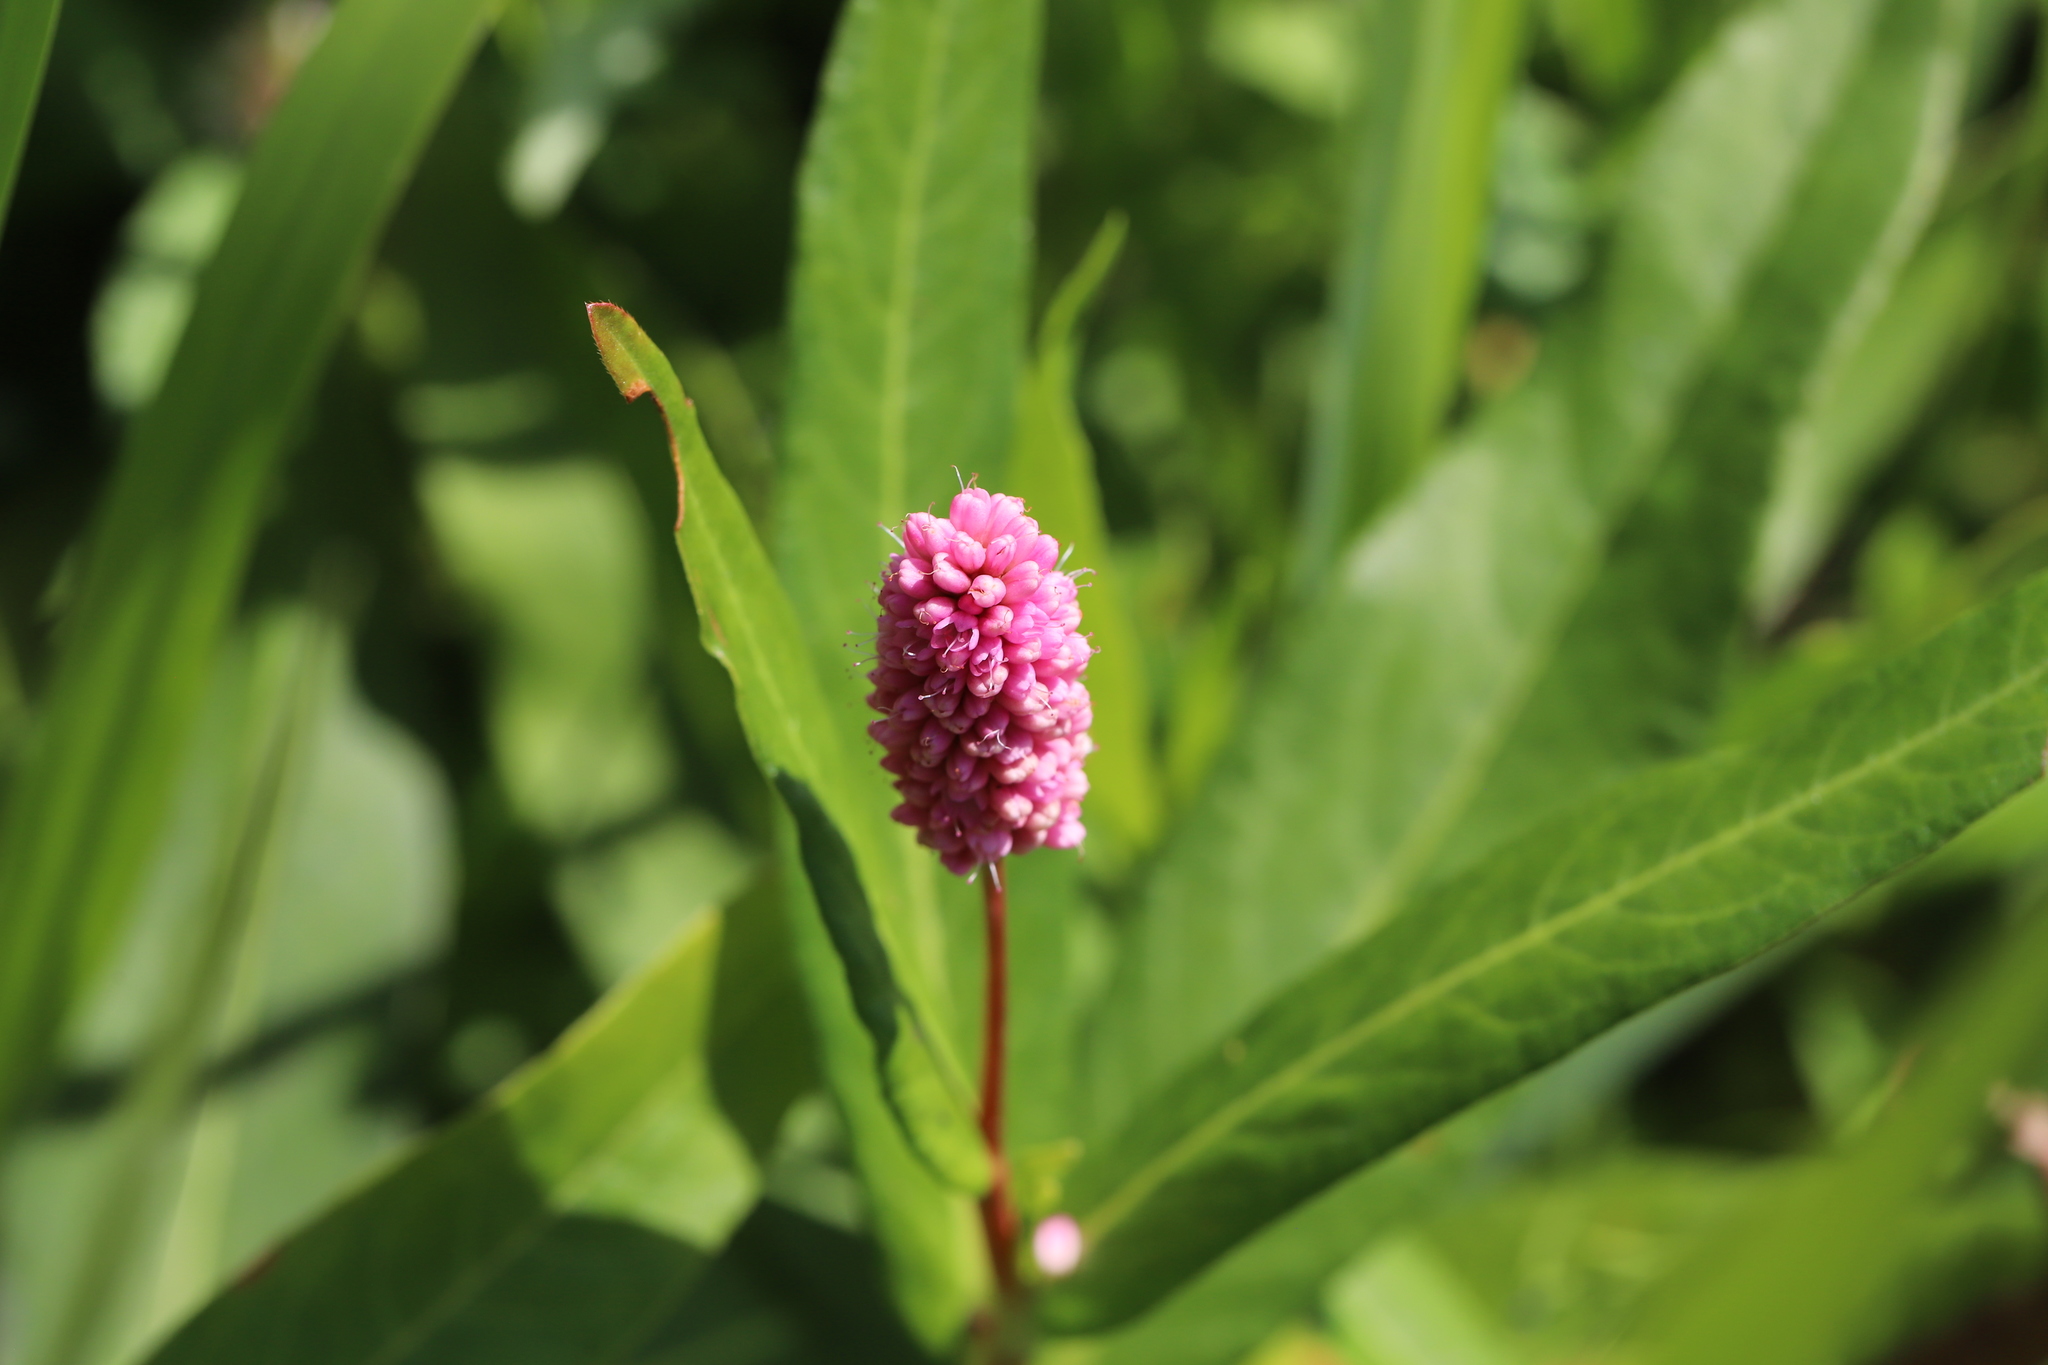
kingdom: Plantae
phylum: Tracheophyta
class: Magnoliopsida
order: Caryophyllales
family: Polygonaceae
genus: Persicaria
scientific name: Persicaria amphibia
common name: Amphibious bistort
